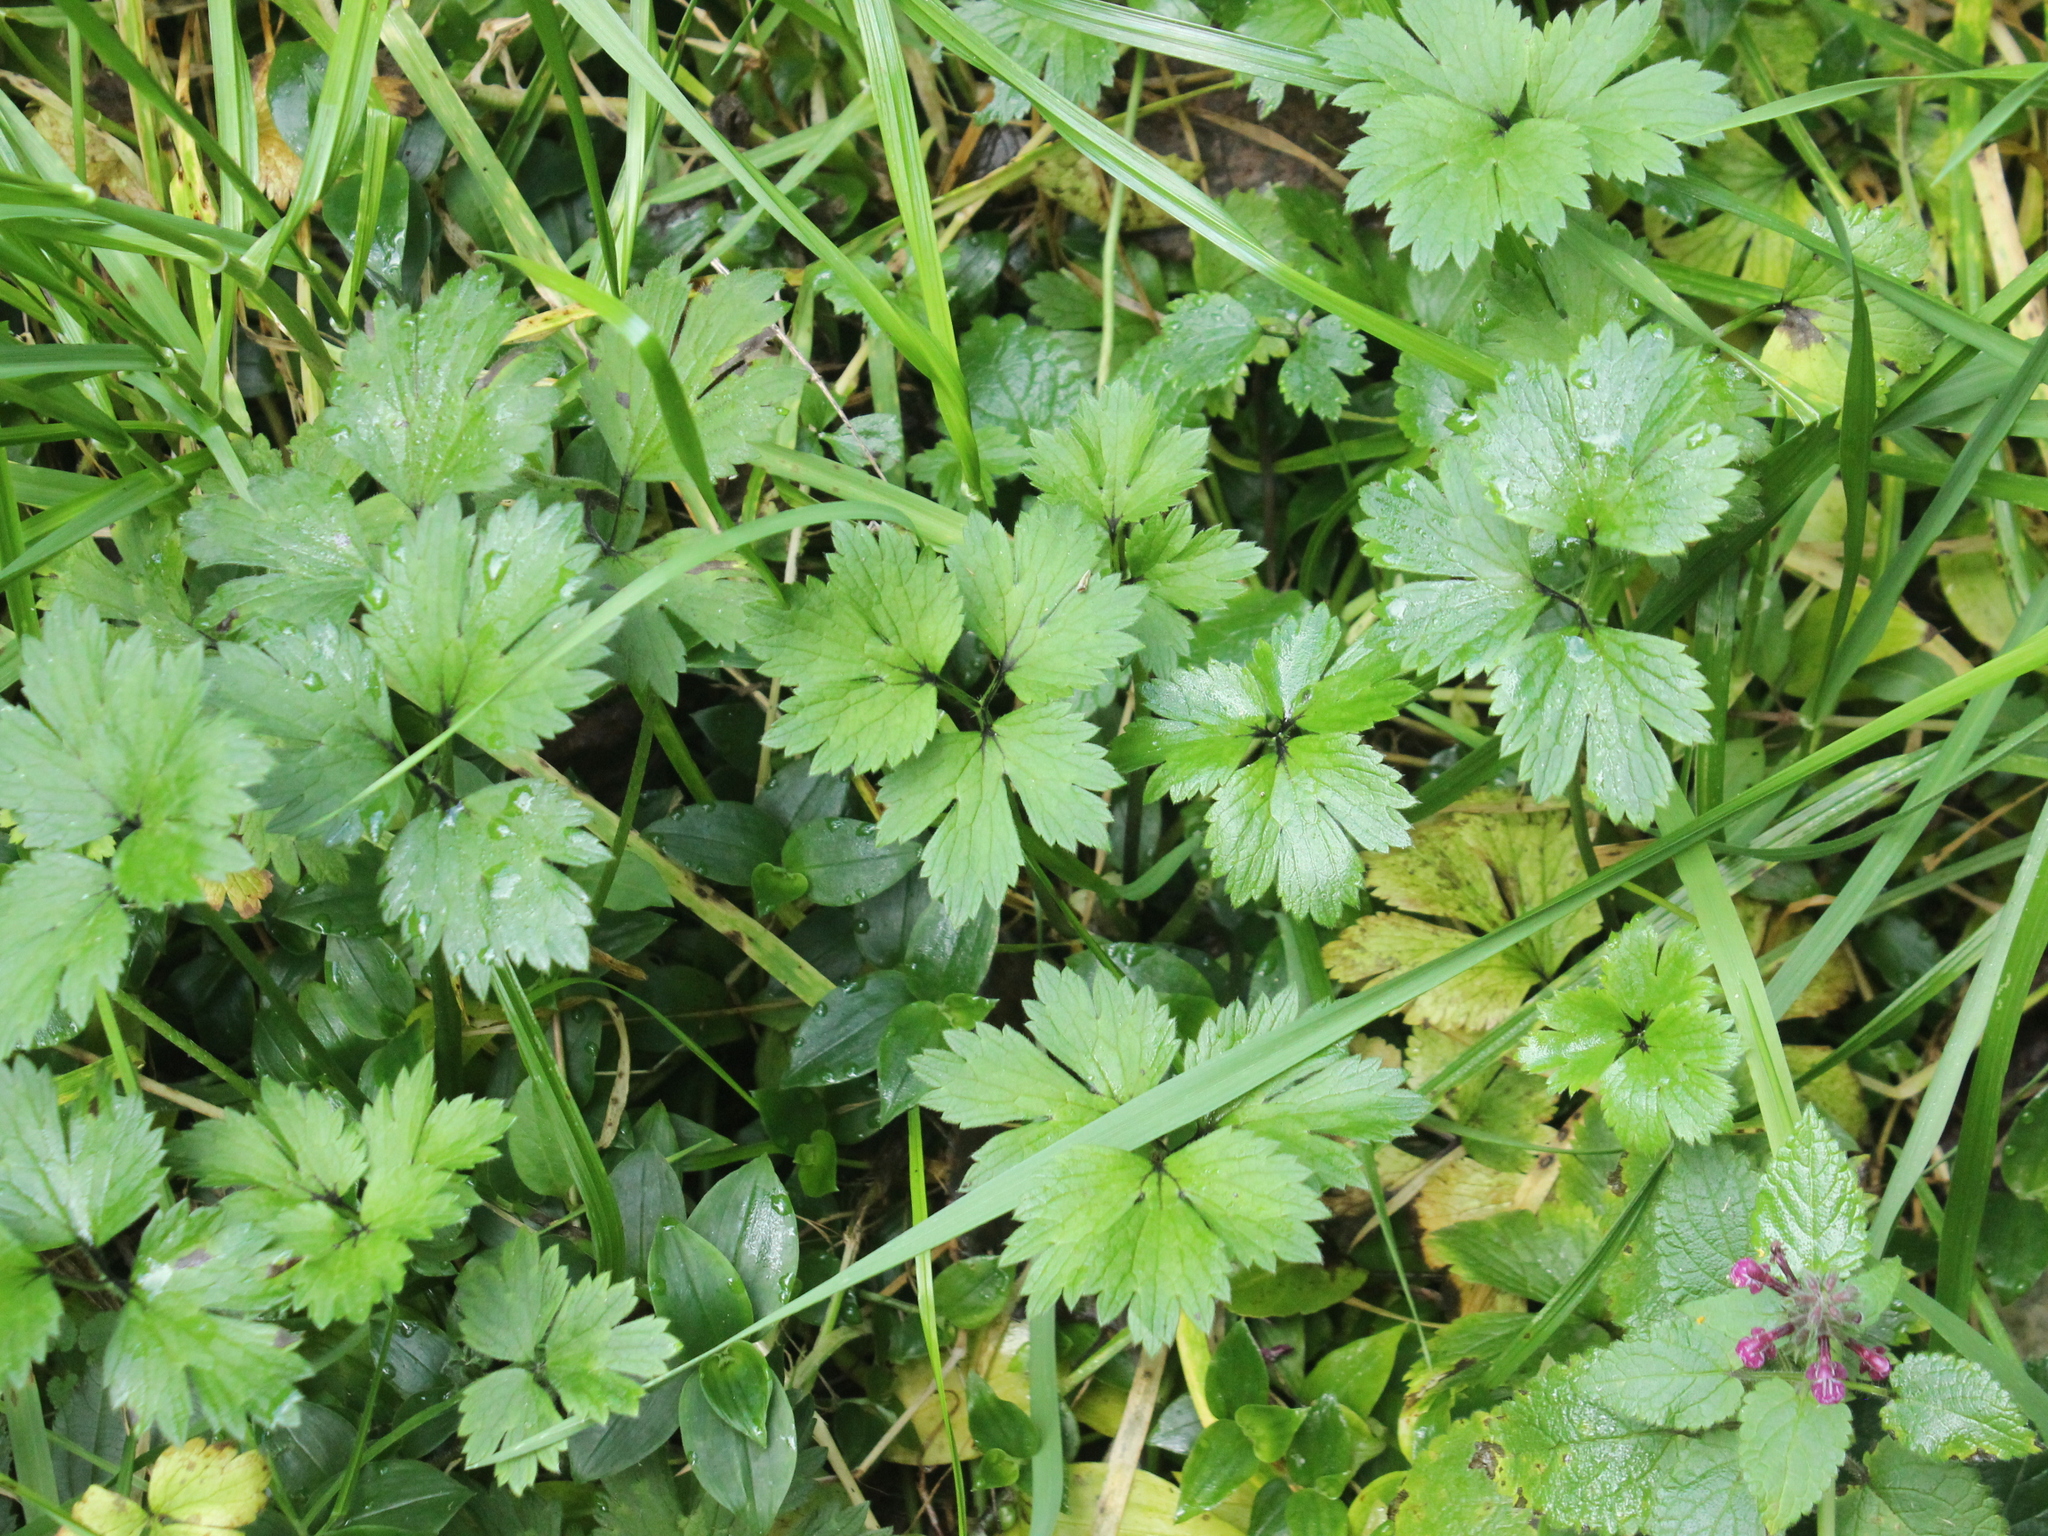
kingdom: Plantae
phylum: Tracheophyta
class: Magnoliopsida
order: Ranunculales
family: Ranunculaceae
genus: Ranunculus
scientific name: Ranunculus repens
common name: Creeping buttercup
